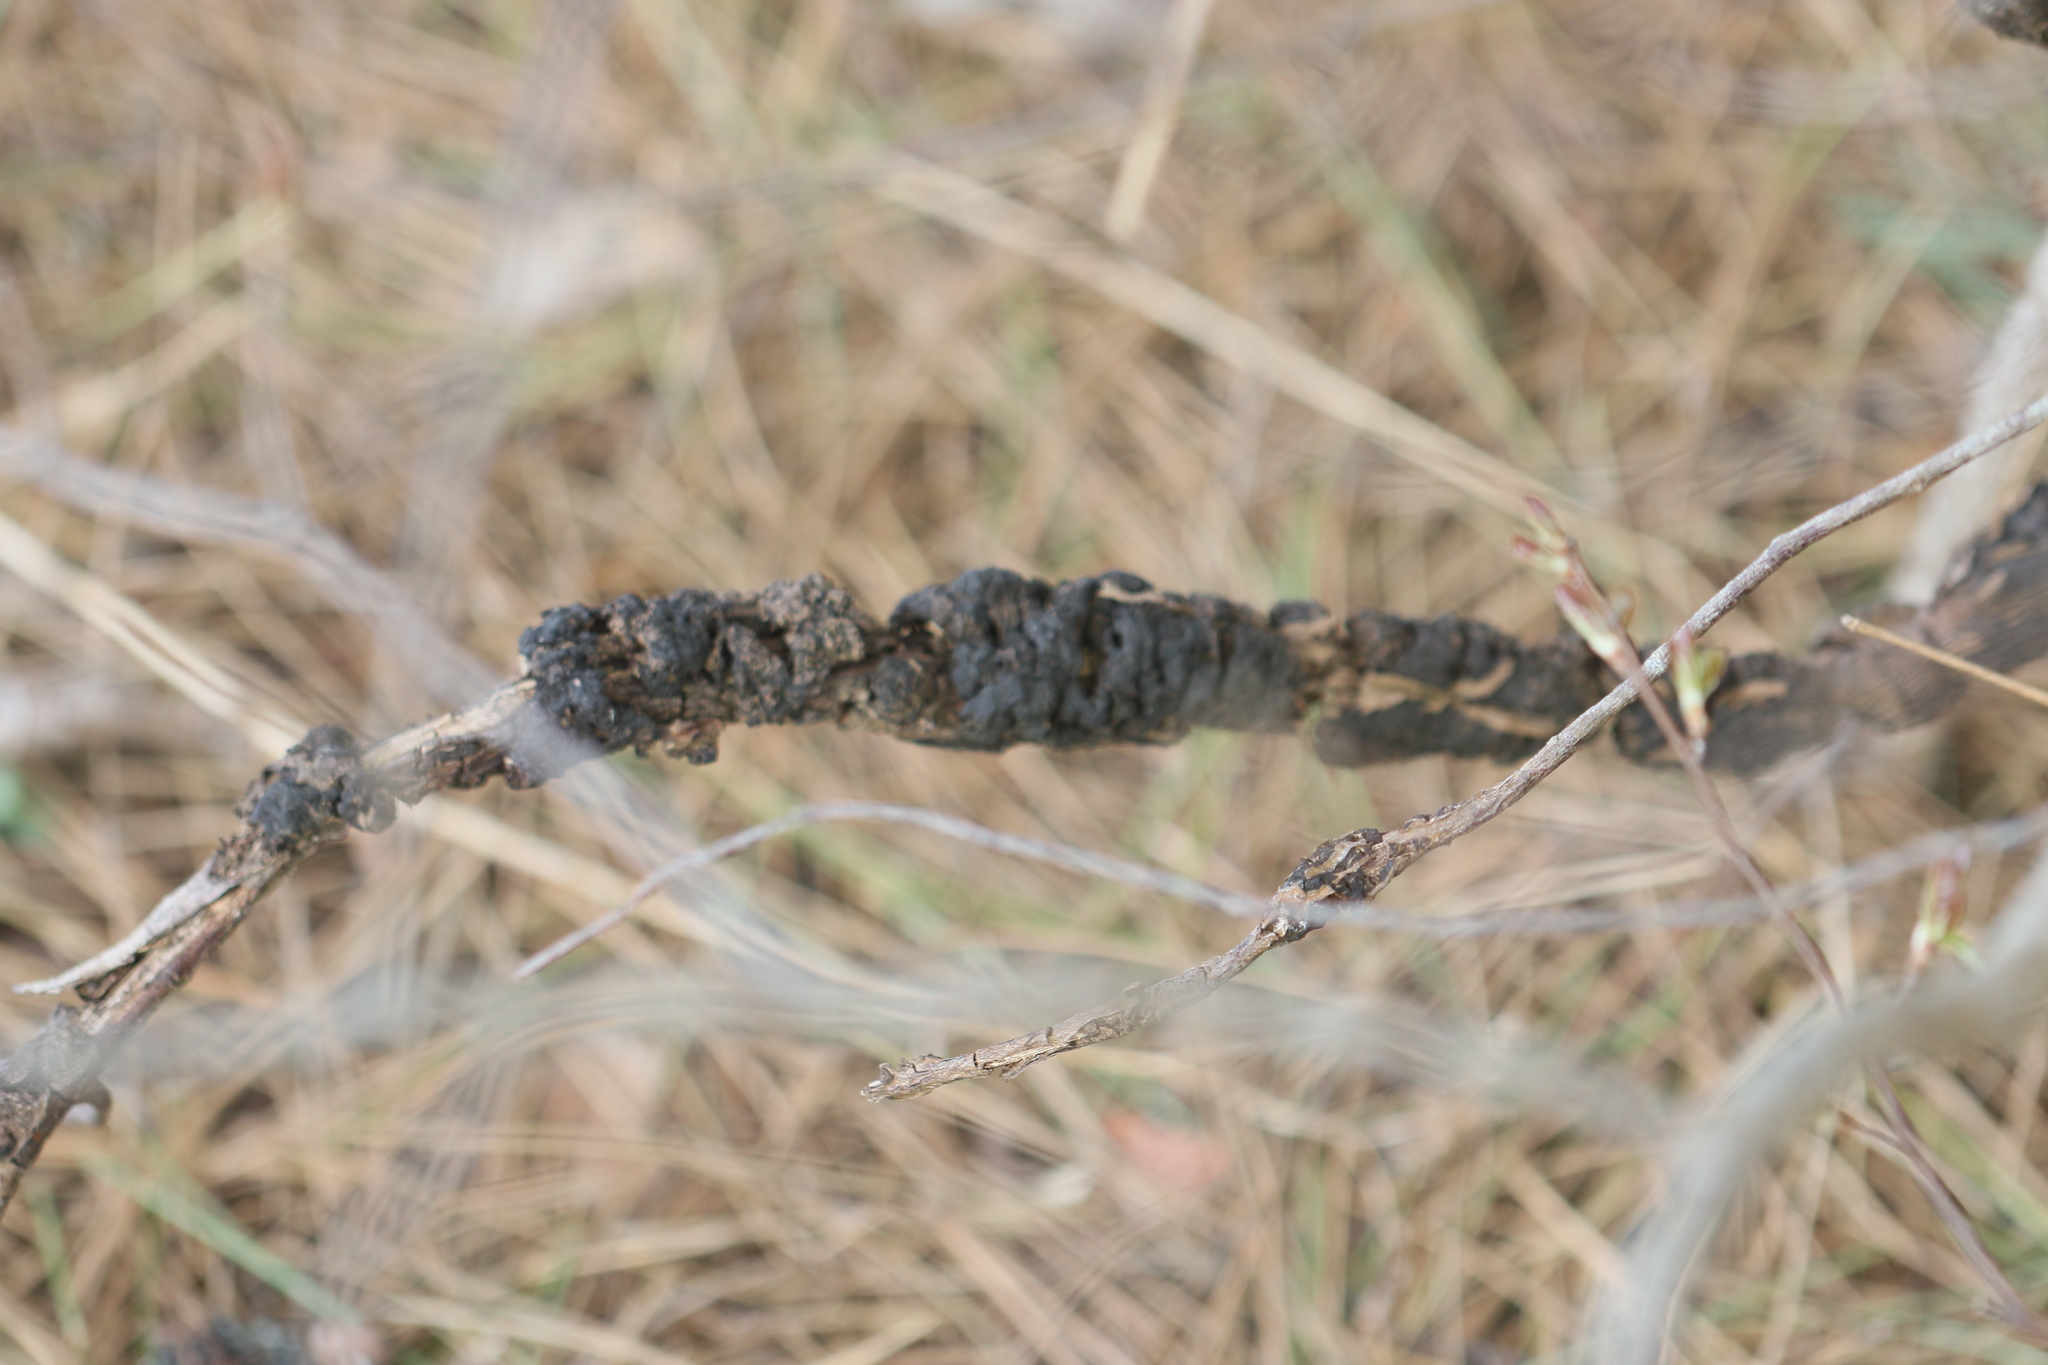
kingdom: Fungi
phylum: Ascomycota
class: Dothideomycetes
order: Venturiales
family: Venturiaceae
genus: Apiosporina
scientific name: Apiosporina morbosa
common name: Black knot
